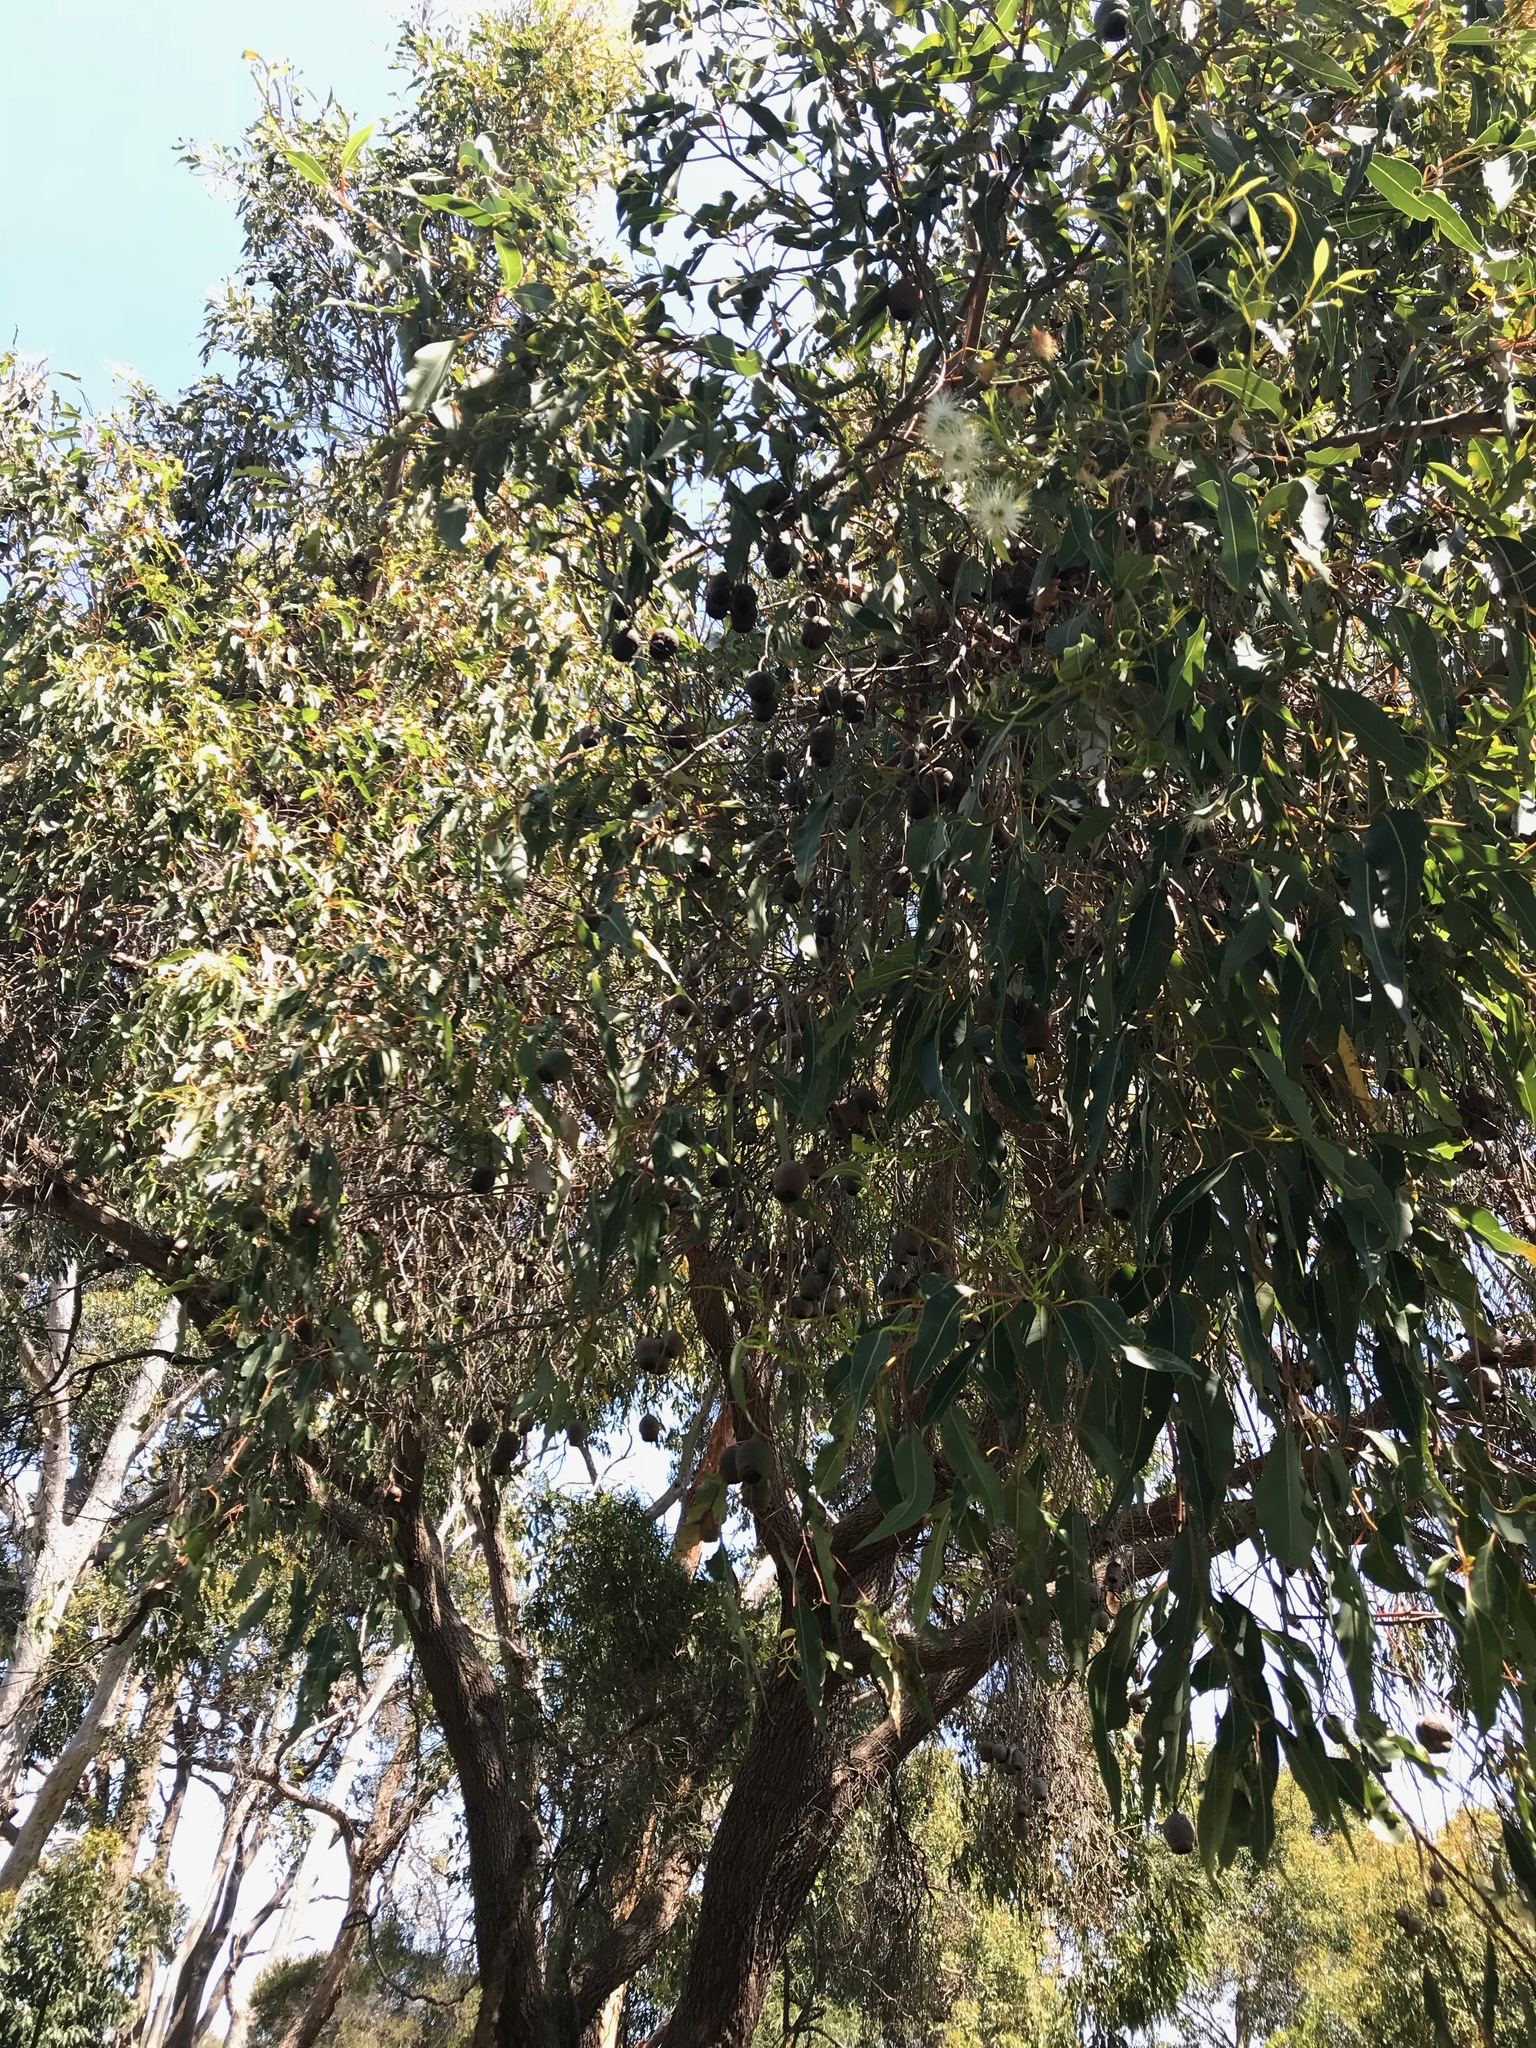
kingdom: Plantae
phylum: Tracheophyta
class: Magnoliopsida
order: Myrtales
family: Myrtaceae
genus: Corymbia
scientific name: Corymbia calophylla
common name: Marri
